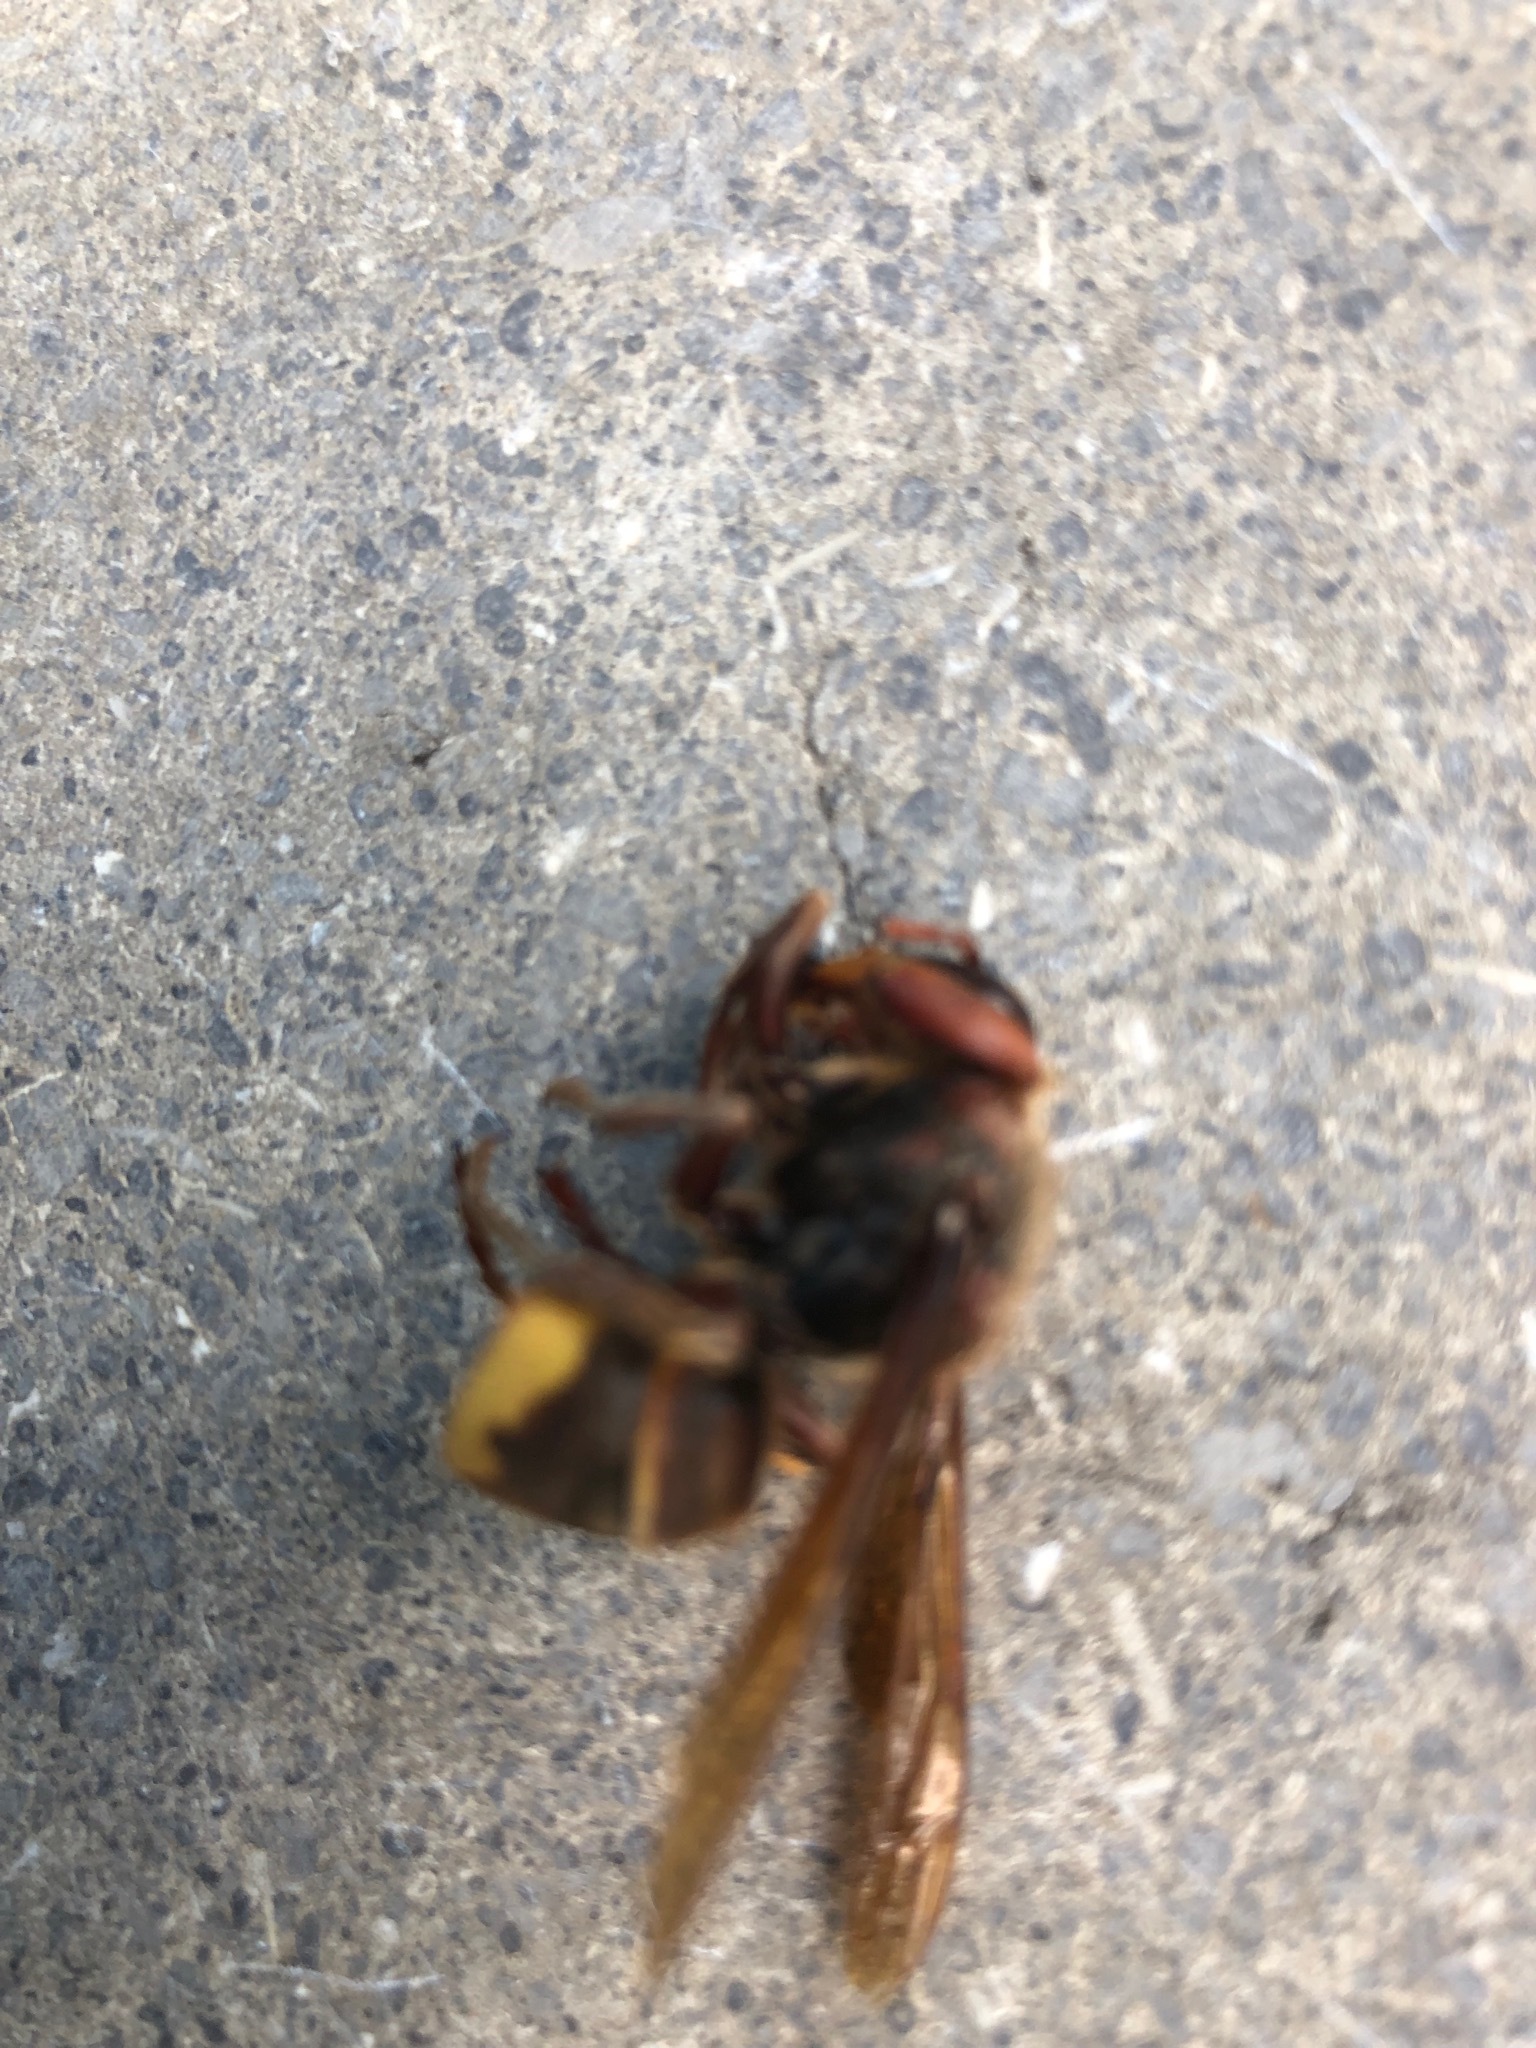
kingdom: Animalia
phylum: Arthropoda
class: Insecta
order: Hymenoptera
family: Vespidae
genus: Vespa
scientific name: Vespa crabro
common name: Hornet
